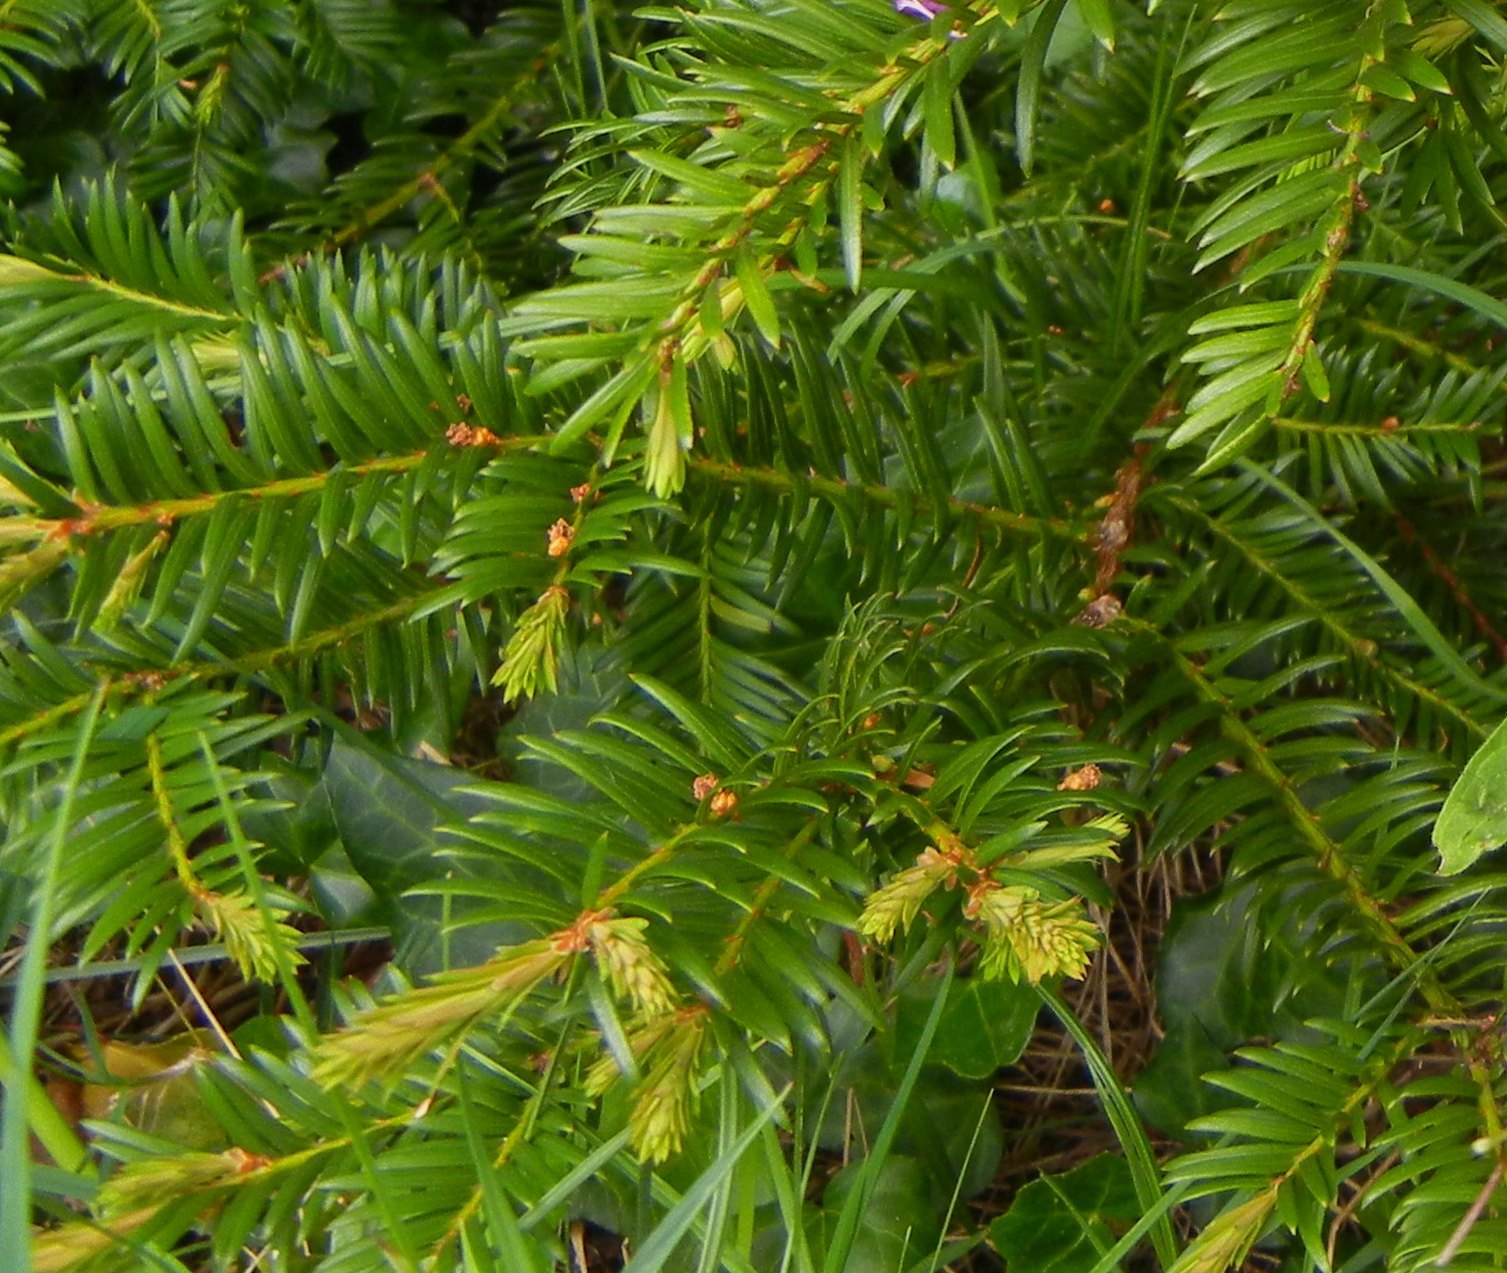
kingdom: Plantae
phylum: Tracheophyta
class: Pinopsida
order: Pinales
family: Taxaceae
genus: Taxus
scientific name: Taxus baccata
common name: Yew
